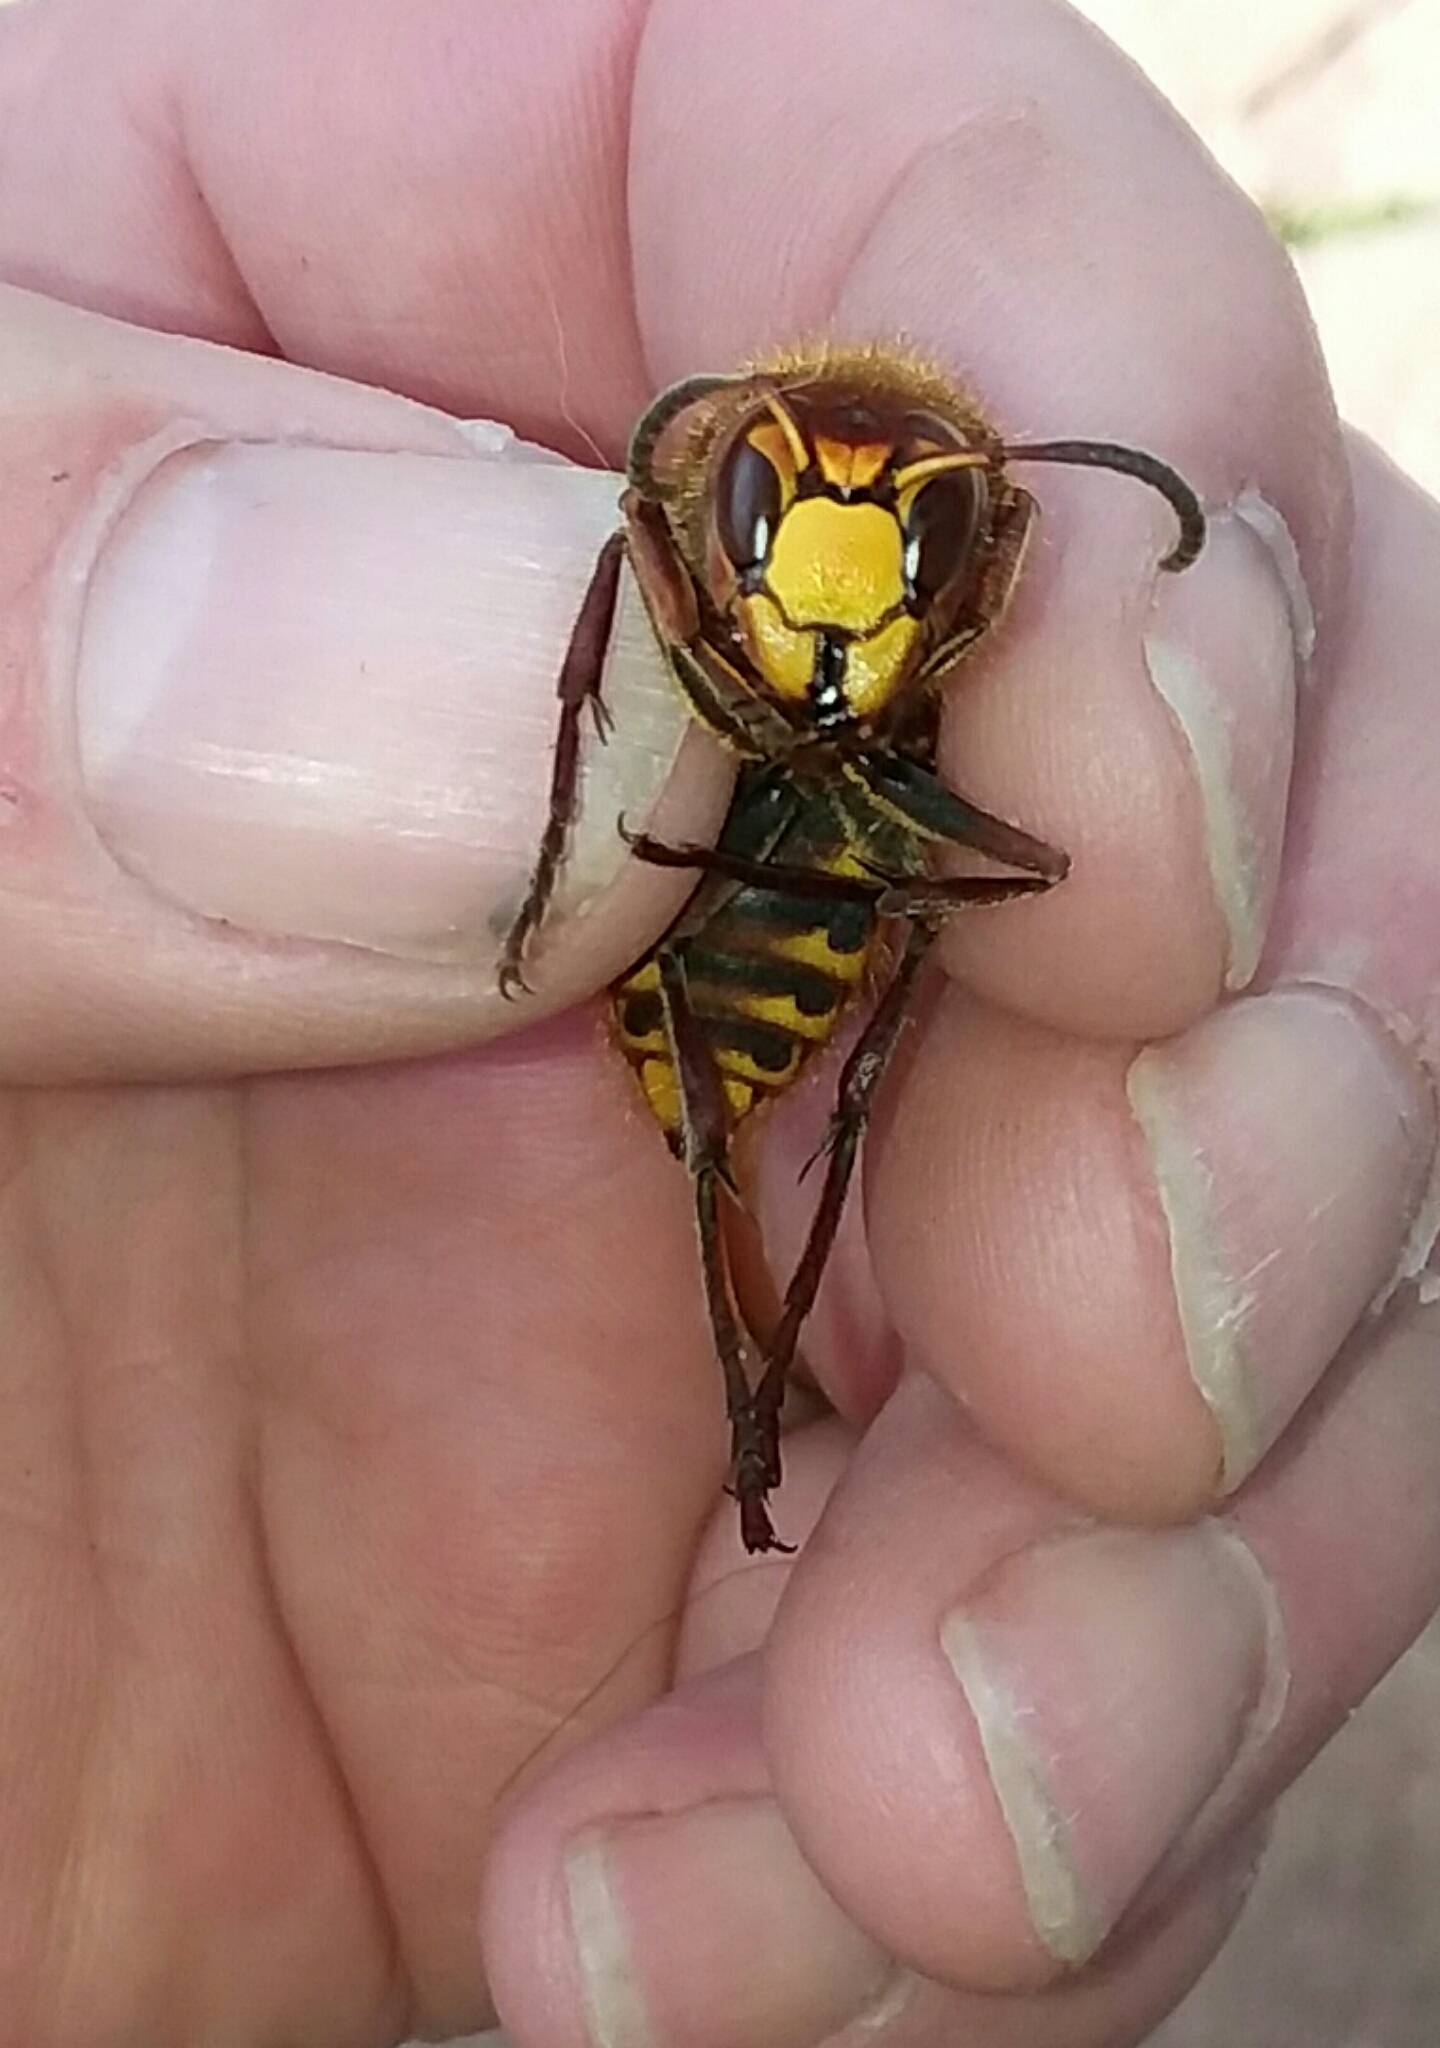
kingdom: Animalia
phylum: Arthropoda
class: Insecta
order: Hymenoptera
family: Vespidae
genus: Vespa
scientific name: Vespa crabro
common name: Hornet
